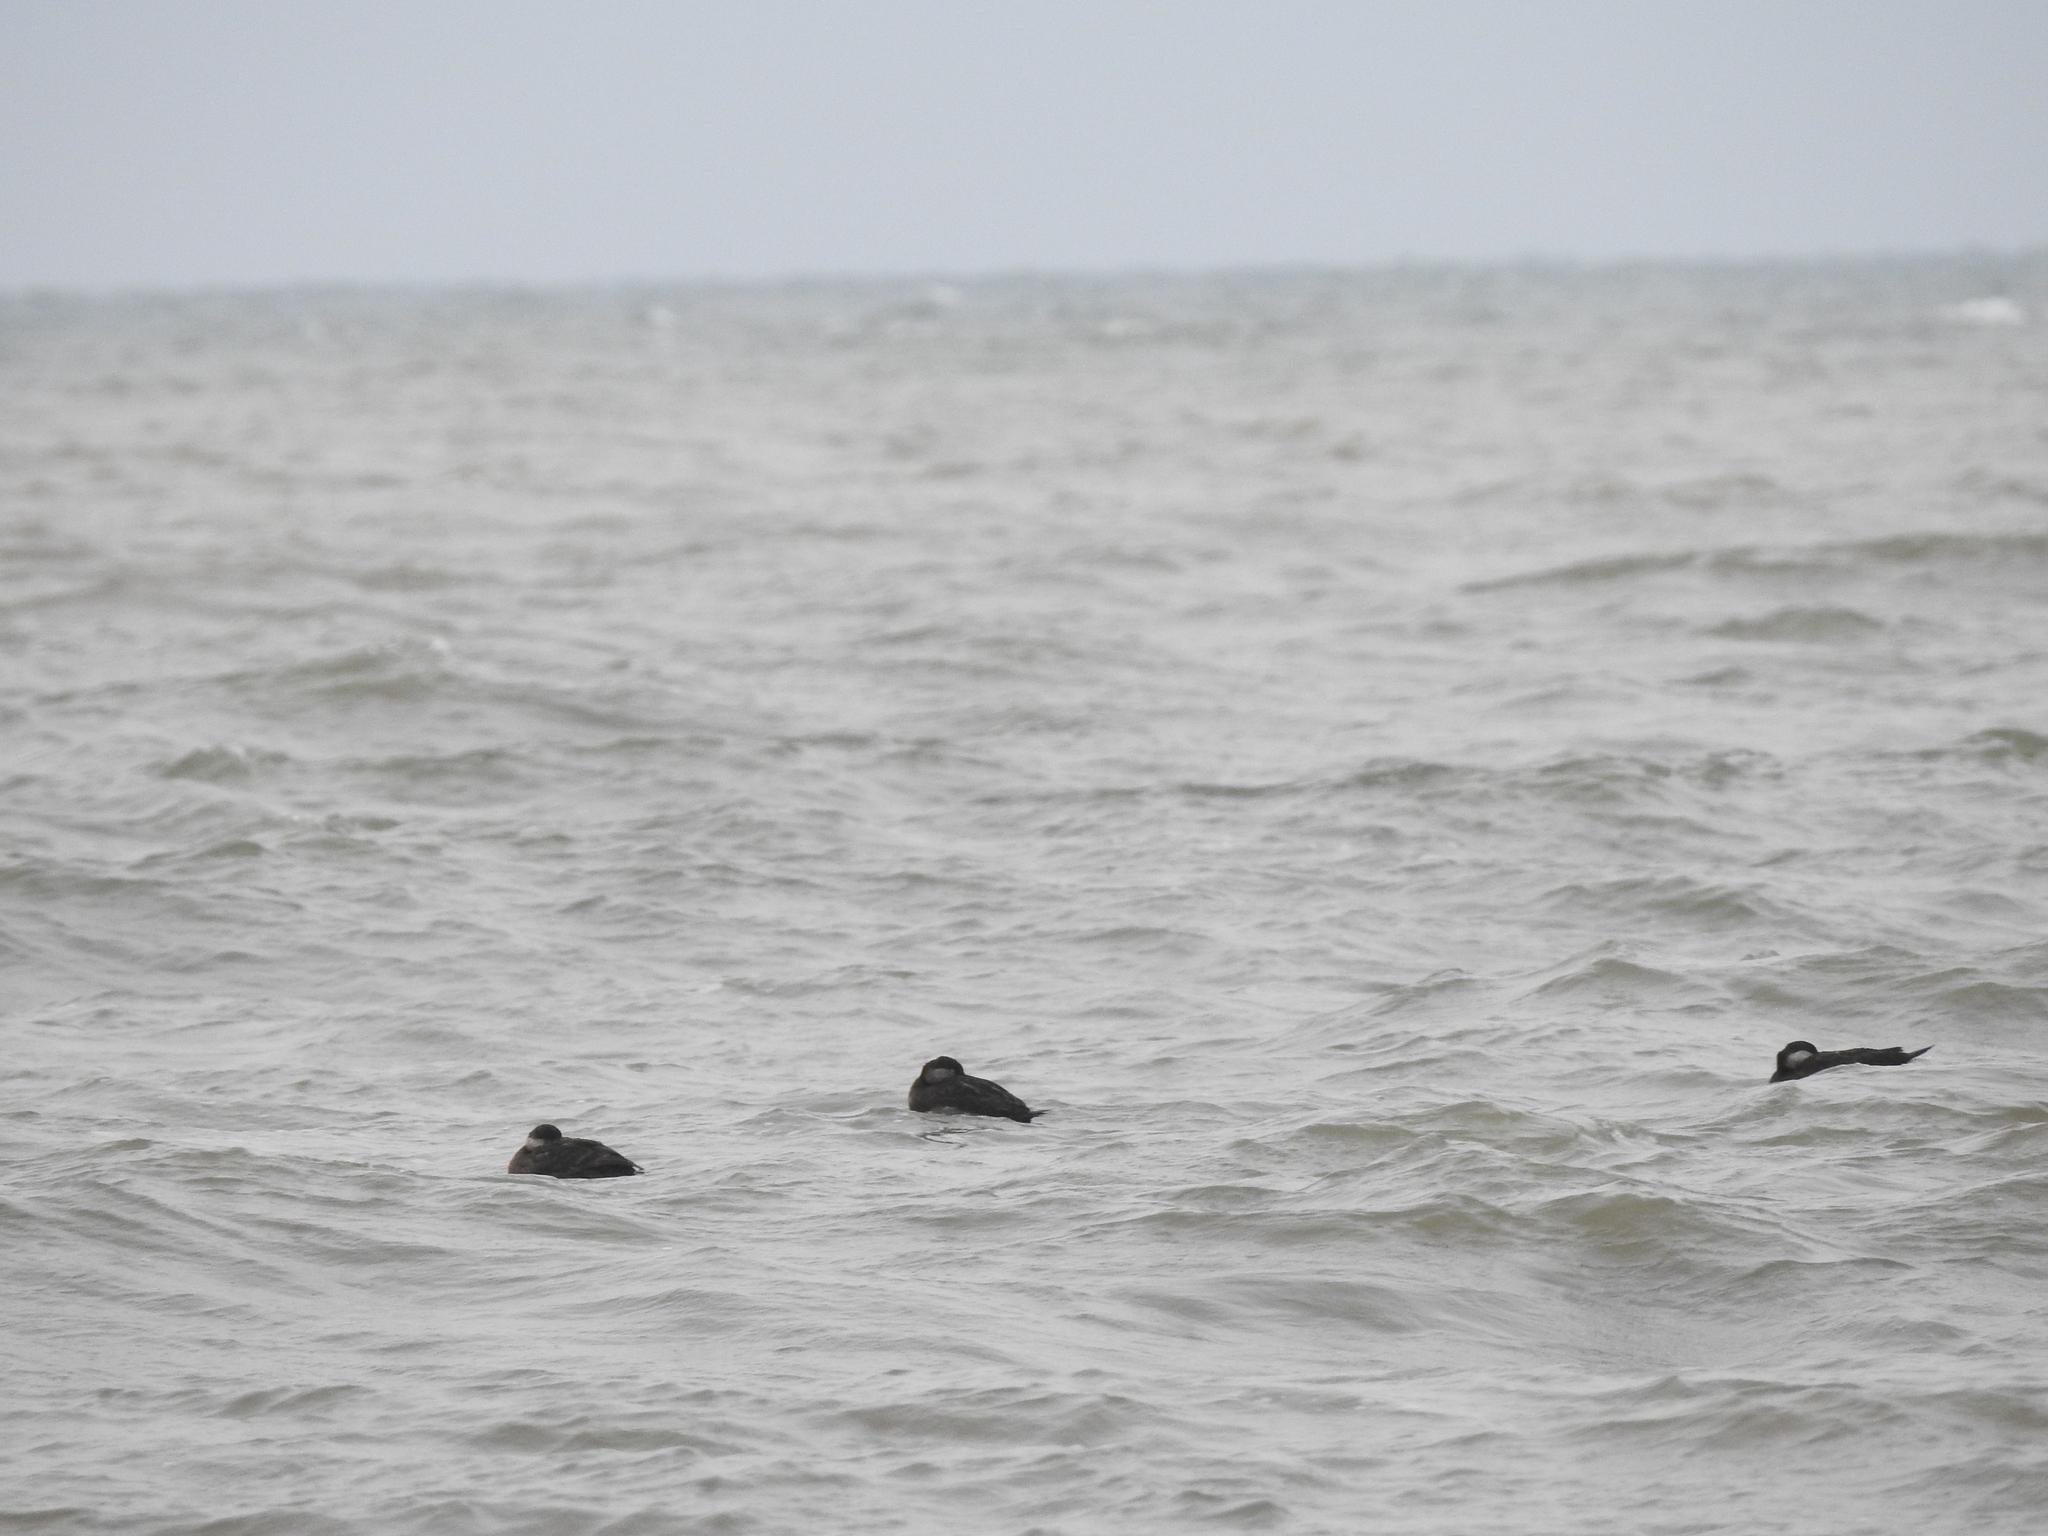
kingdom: Animalia
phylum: Chordata
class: Aves
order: Anseriformes
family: Anatidae
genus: Melanitta
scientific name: Melanitta americana
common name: Black scoter
